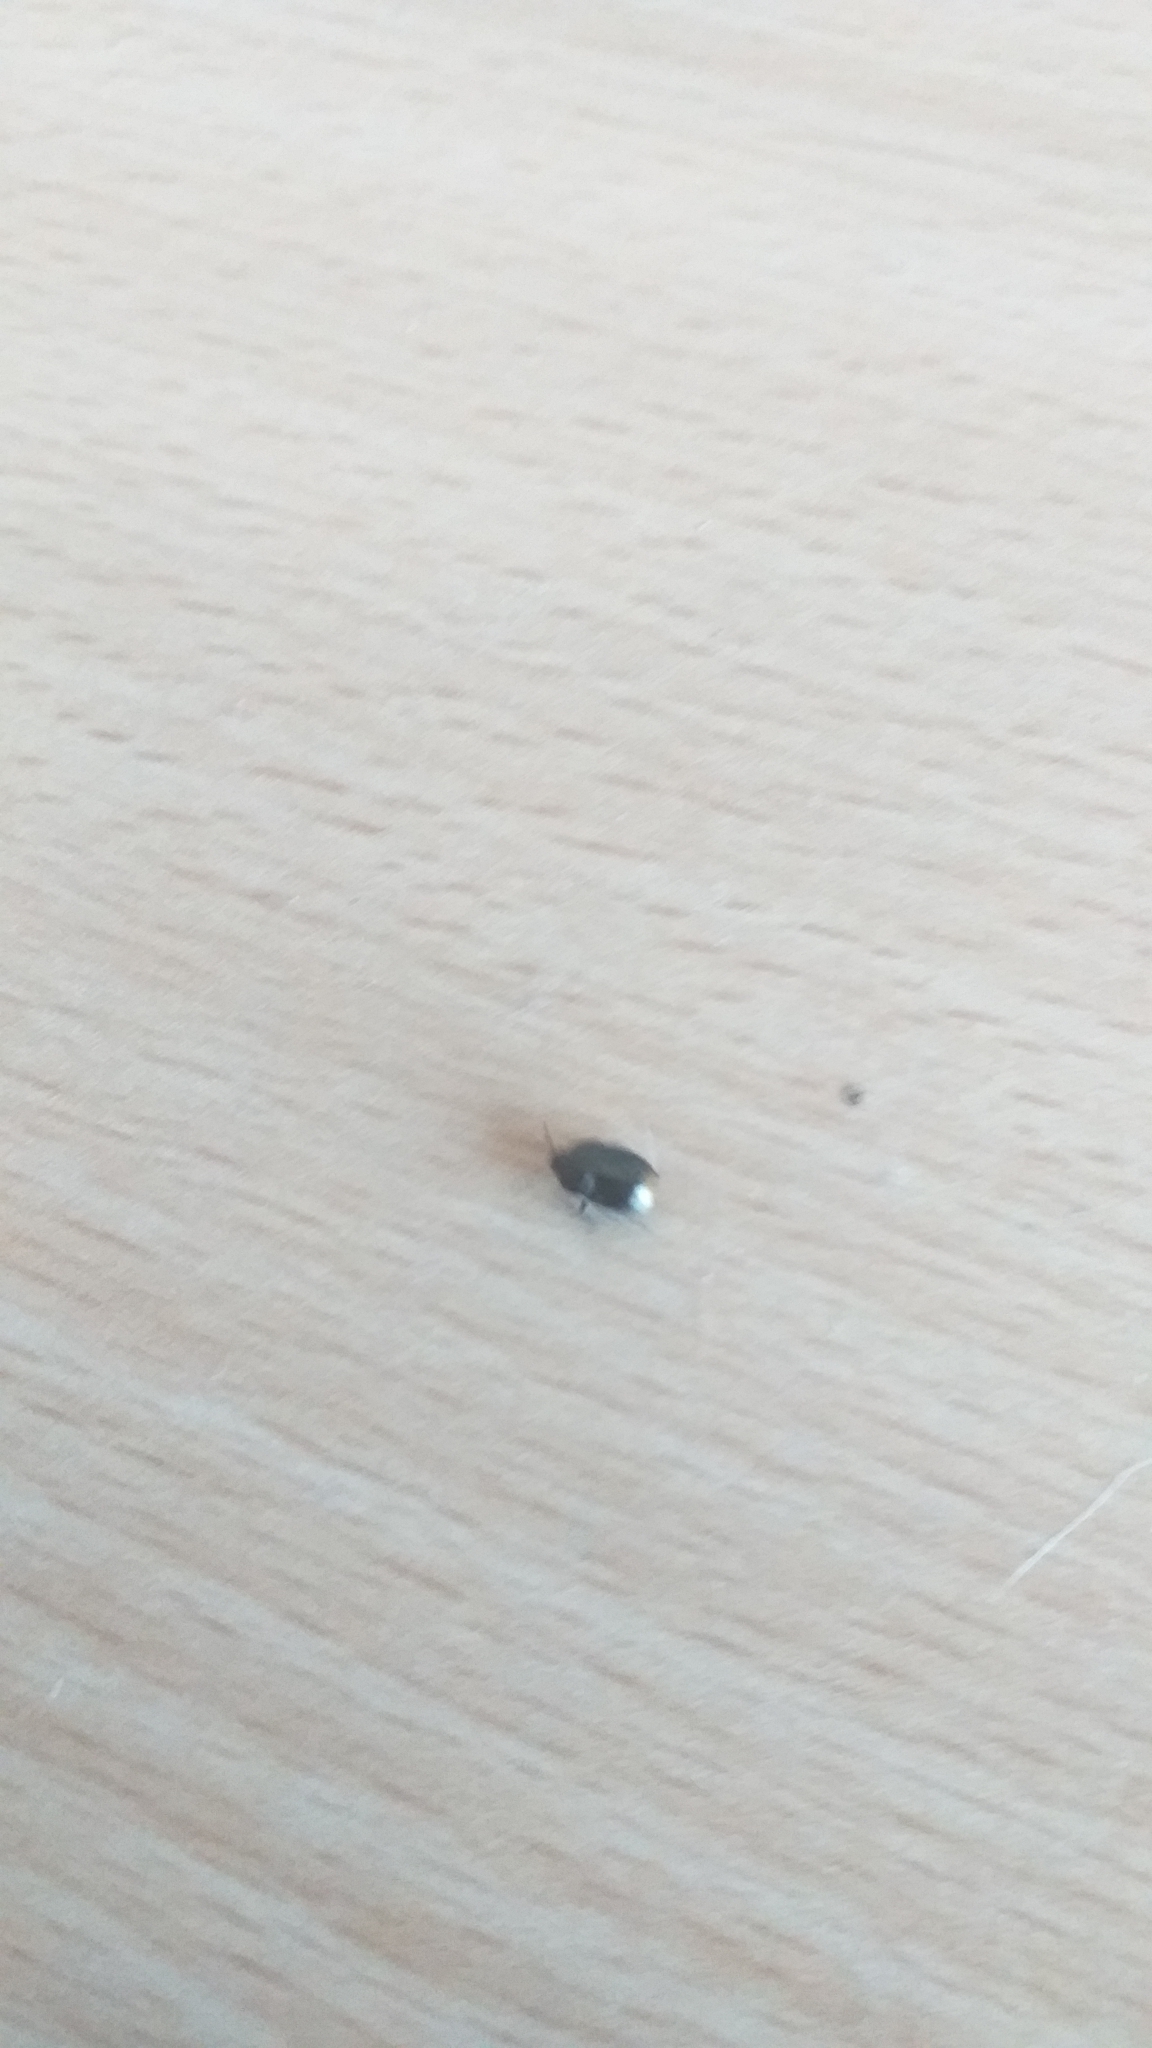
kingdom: Animalia
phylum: Arthropoda
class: Insecta
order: Hemiptera
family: Cydnidae
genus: Legnotus
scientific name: Legnotus limbosus
